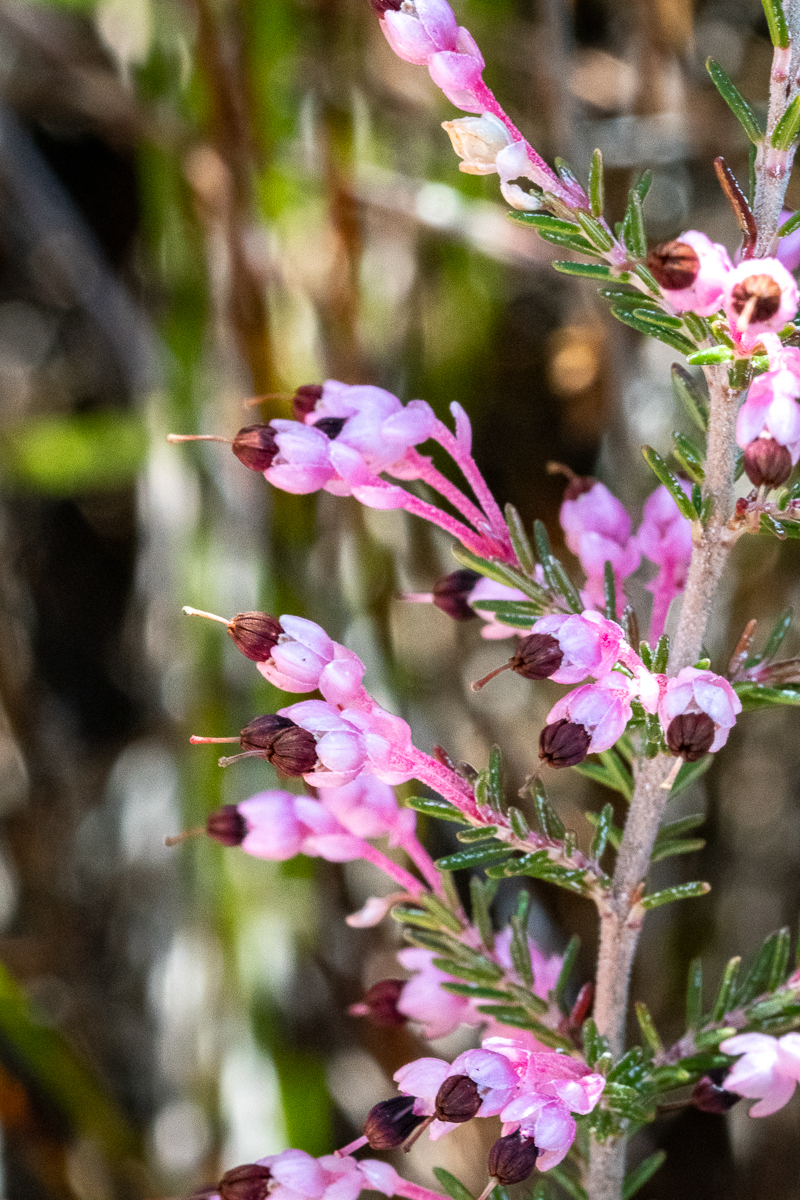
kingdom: Plantae
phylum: Tracheophyta
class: Magnoliopsida
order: Ericales
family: Ericaceae
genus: Erica
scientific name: Erica placentiflora
